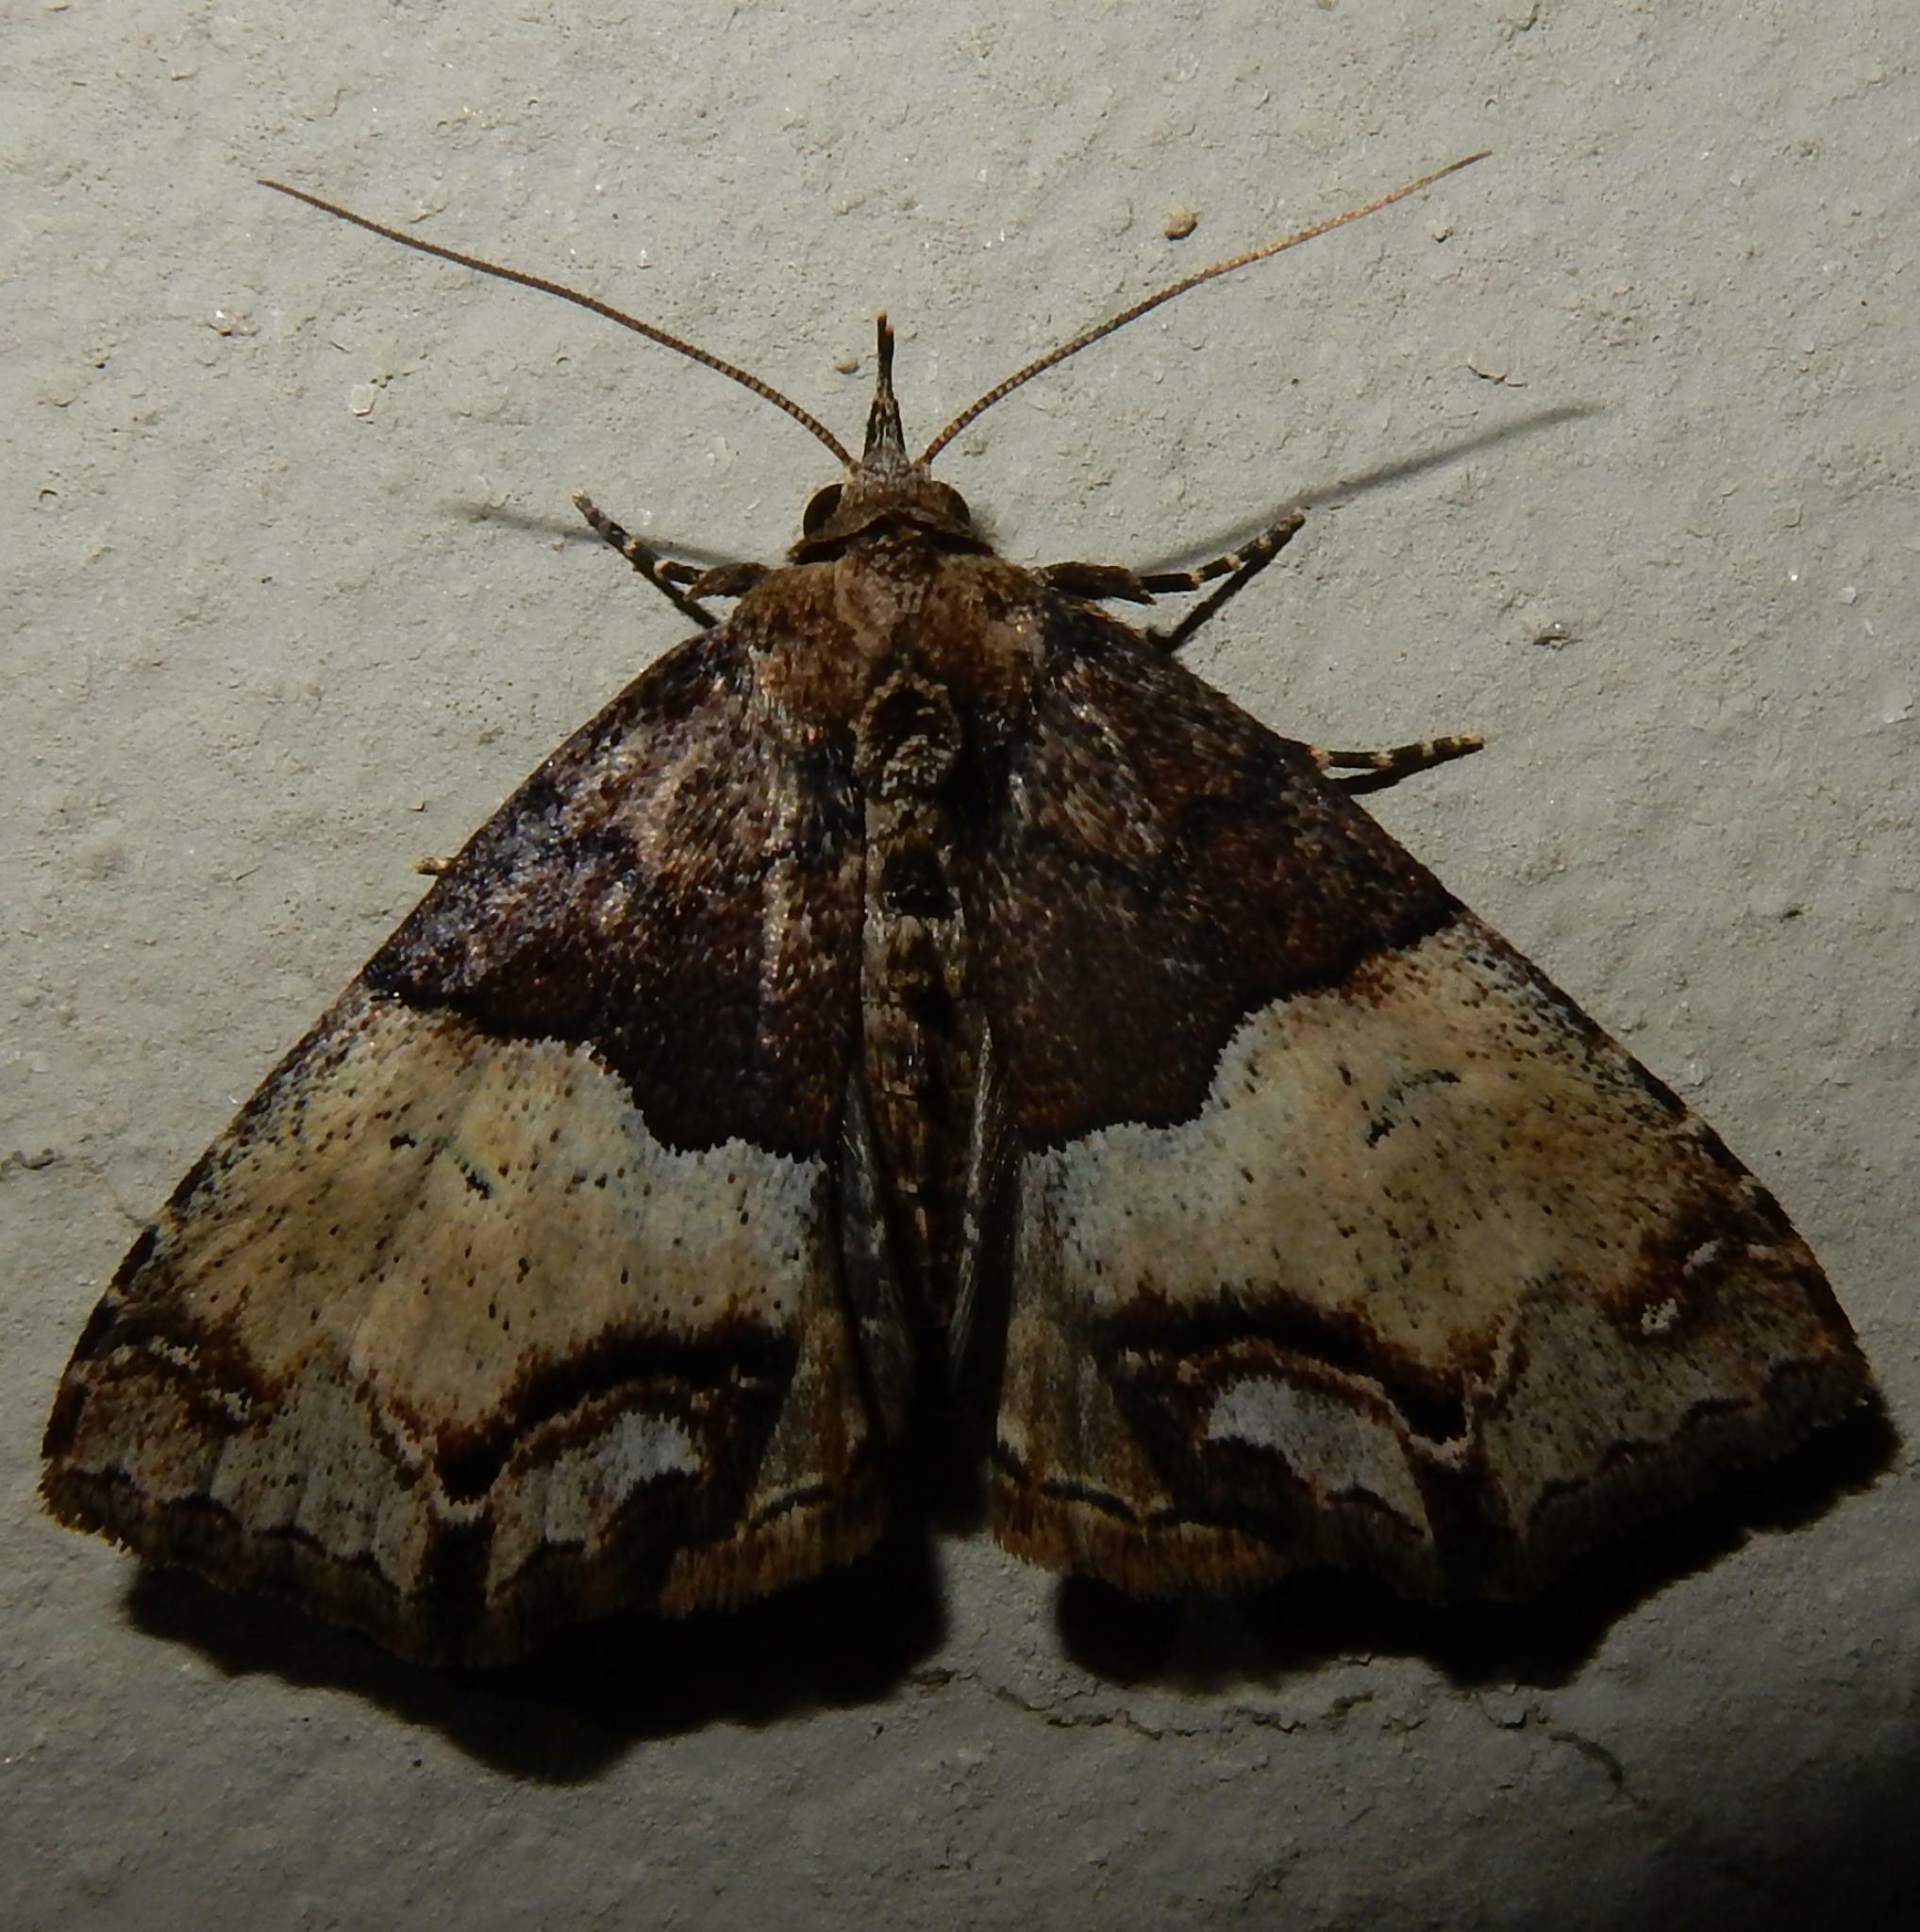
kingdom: Animalia
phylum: Arthropoda
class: Insecta
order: Lepidoptera
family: Erebidae
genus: Sarmatia
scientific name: Sarmatia interitalis
